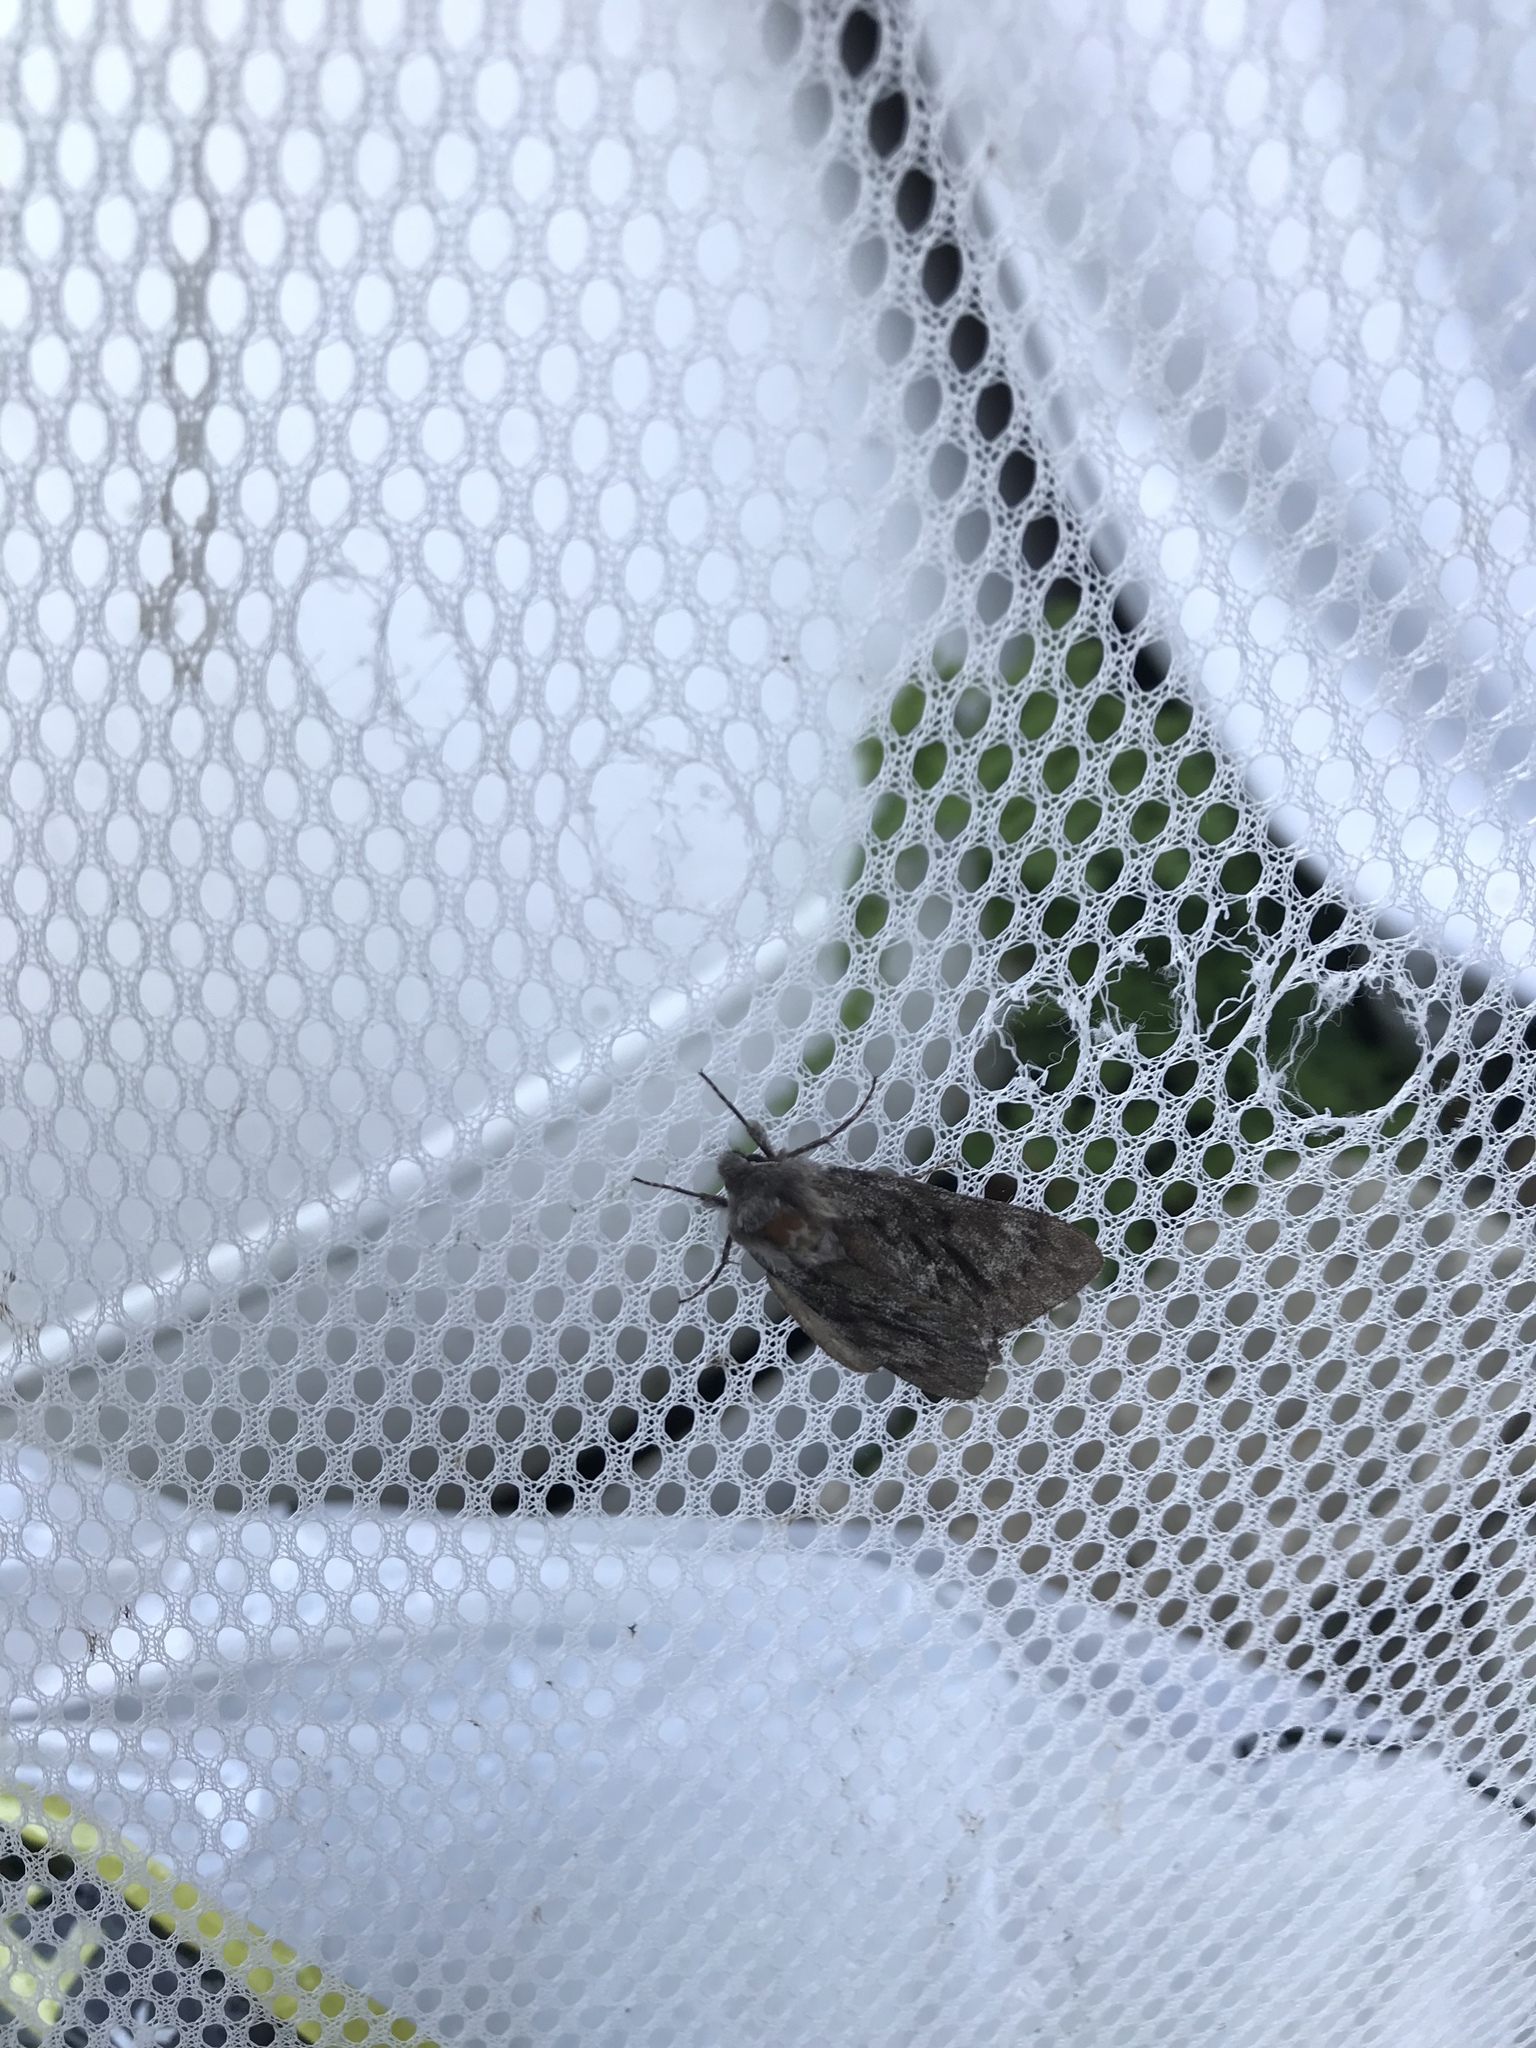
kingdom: Animalia
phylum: Arthropoda
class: Insecta
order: Lepidoptera
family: Sphingidae
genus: Lapara
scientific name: Lapara bombycoides
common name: Northern pine sphinx
